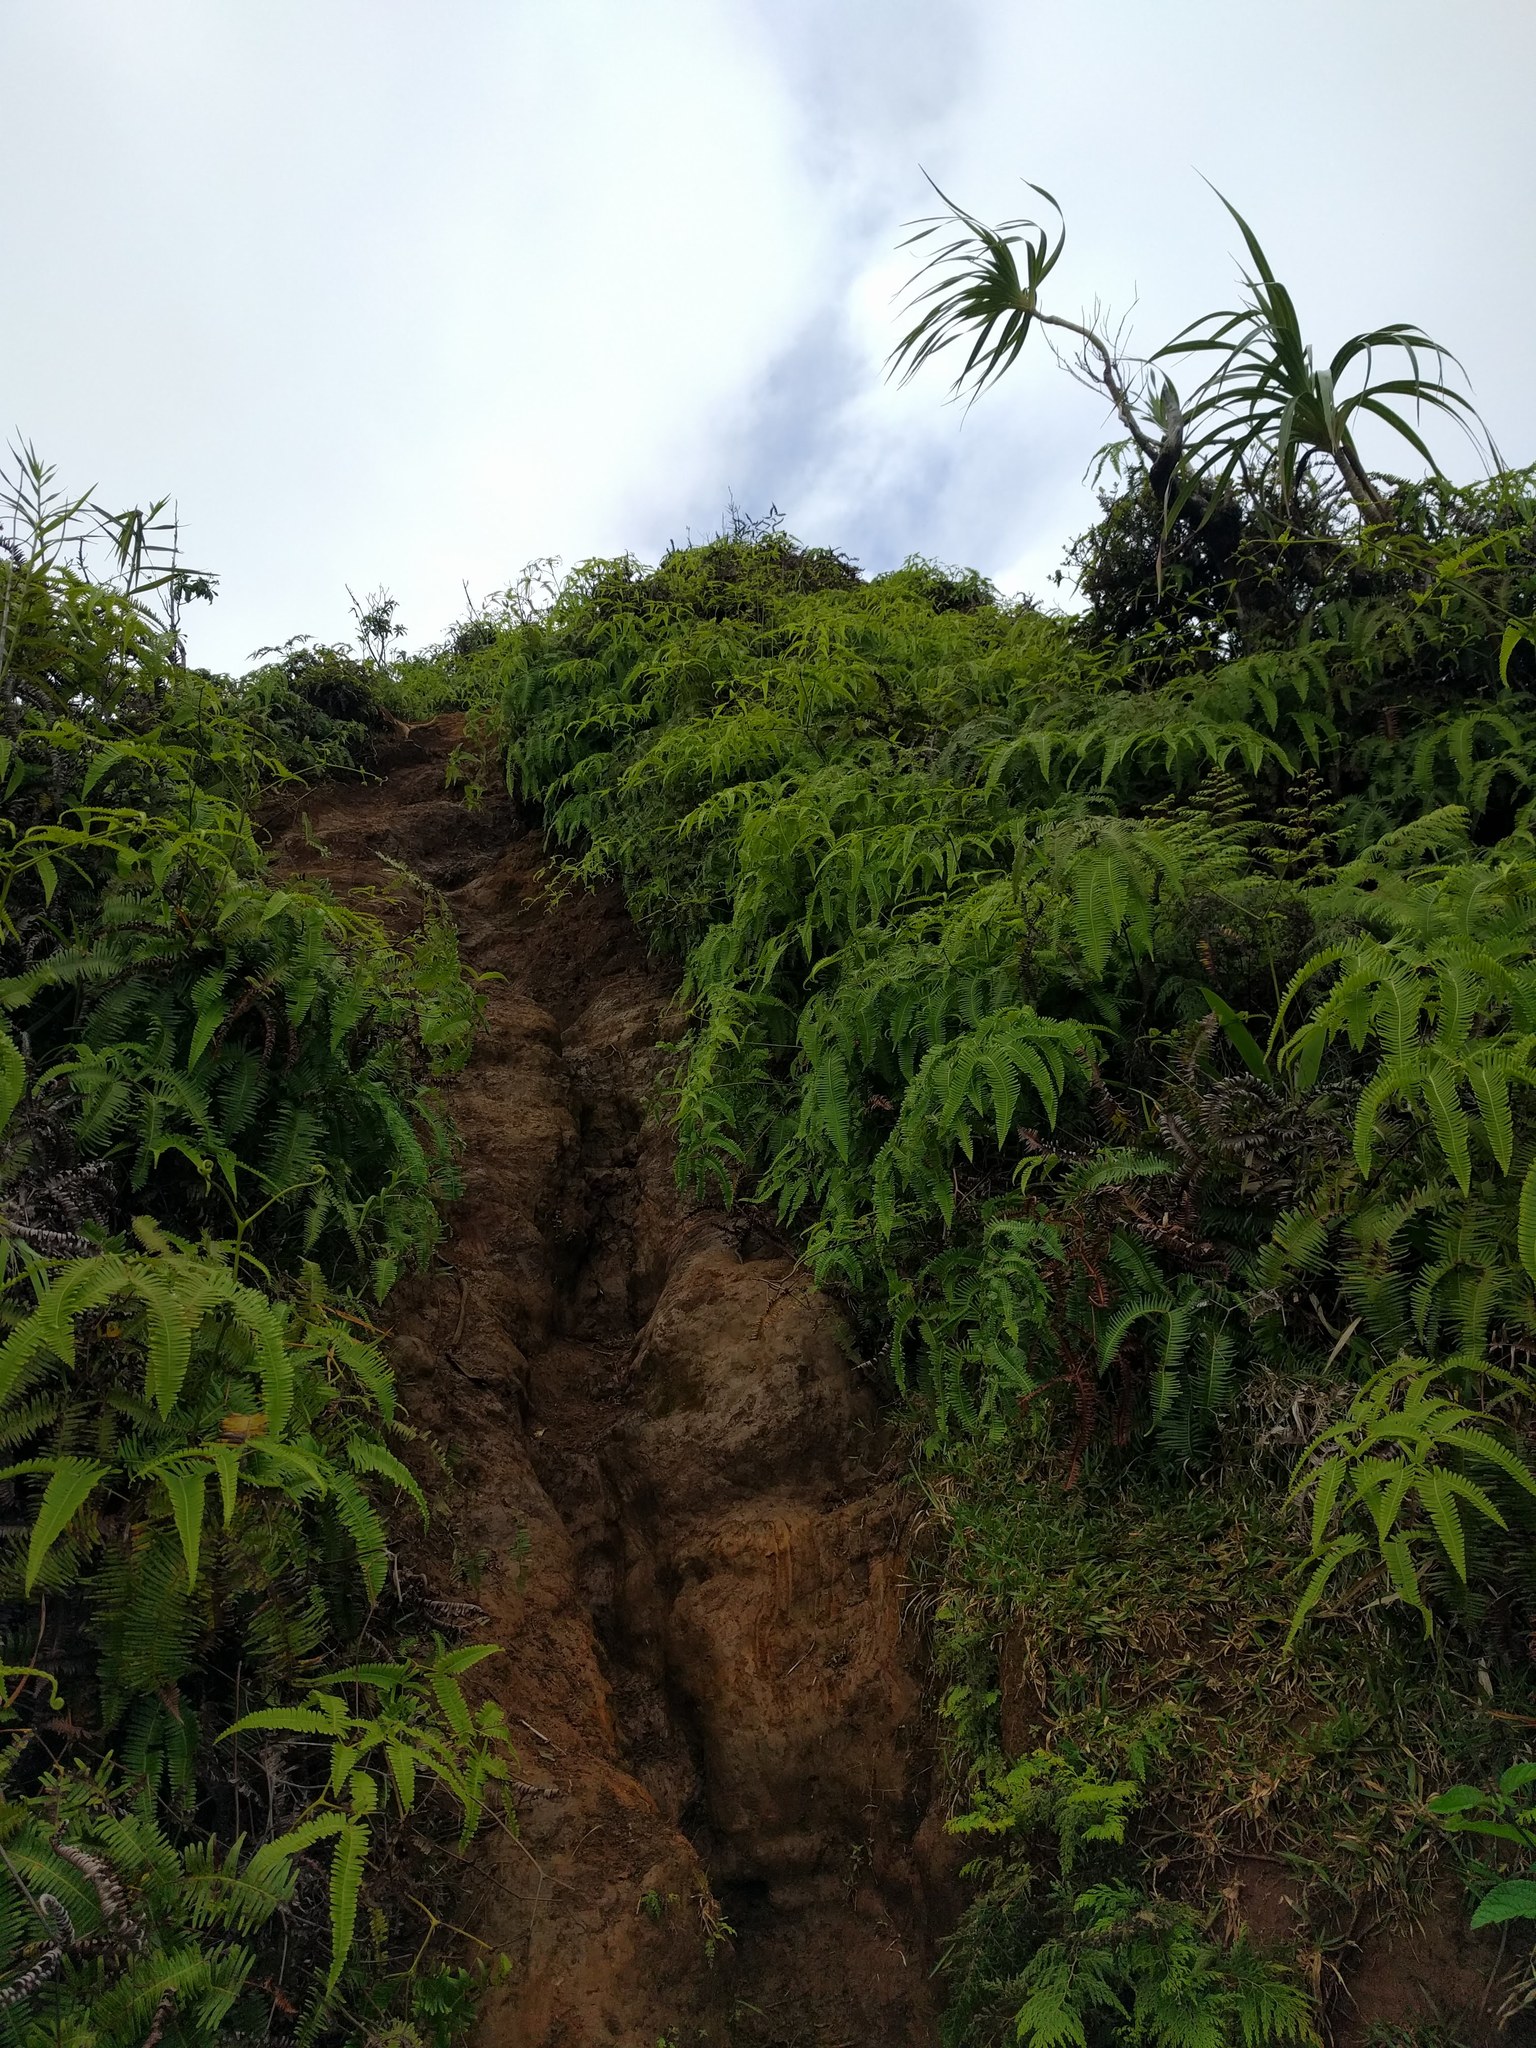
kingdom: Plantae
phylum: Tracheophyta
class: Polypodiopsida
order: Gleicheniales
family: Gleicheniaceae
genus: Dicranopteris
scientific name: Dicranopteris linearis
